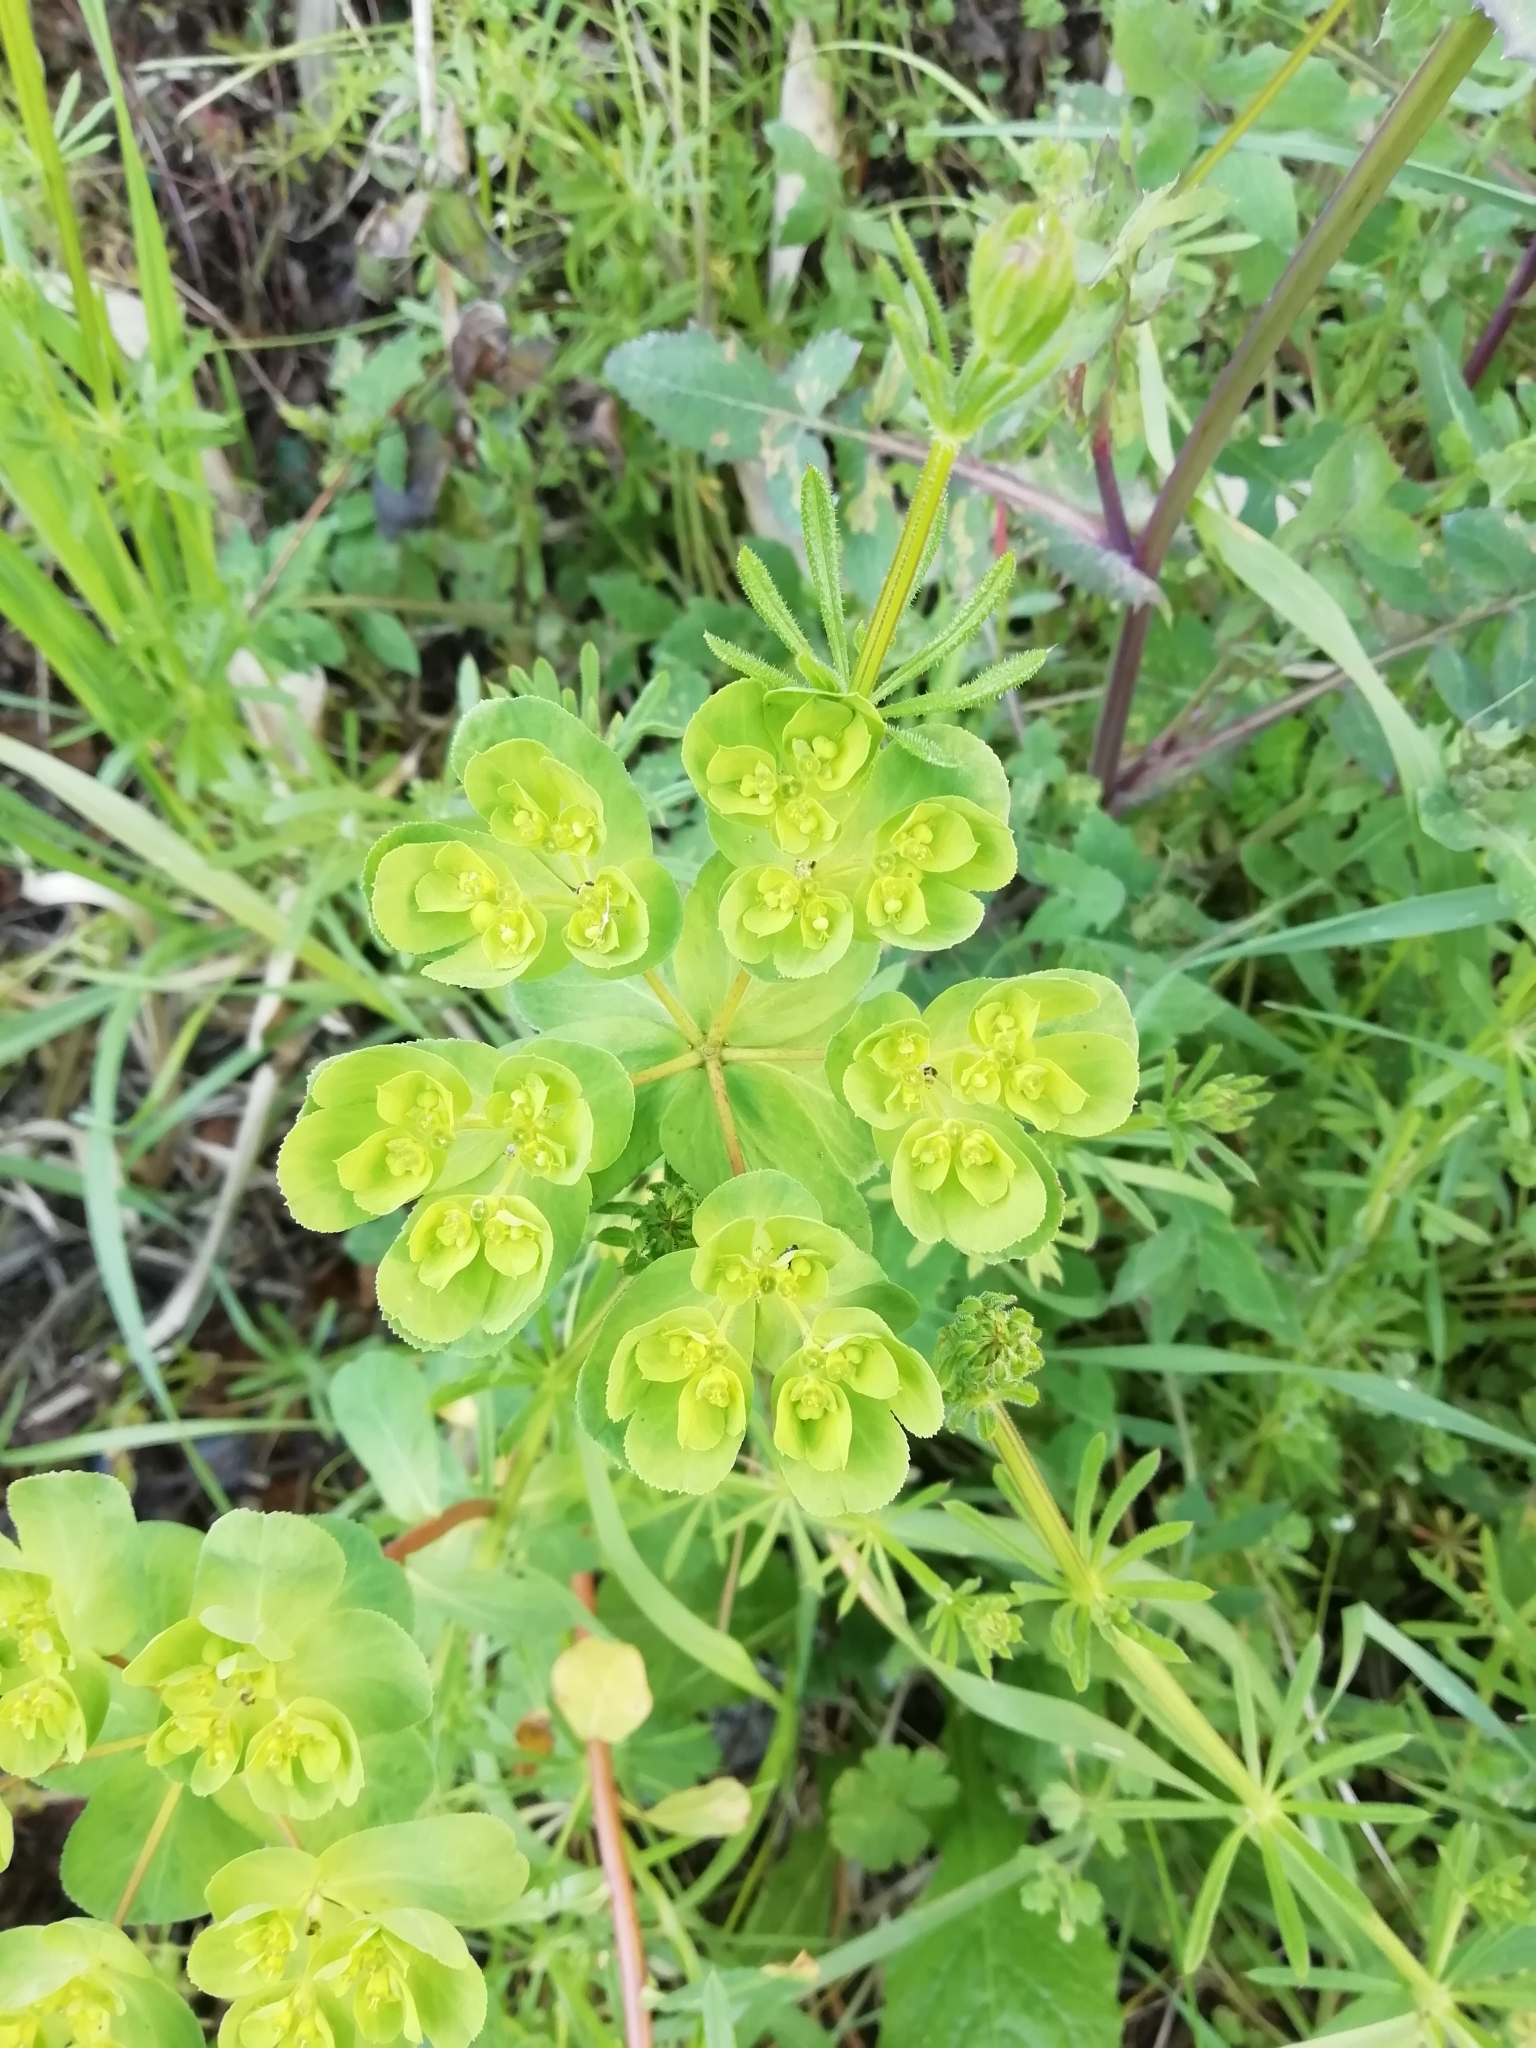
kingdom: Plantae
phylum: Tracheophyta
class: Magnoliopsida
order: Malpighiales
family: Euphorbiaceae
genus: Euphorbia
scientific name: Euphorbia helioscopia
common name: Sun spurge
